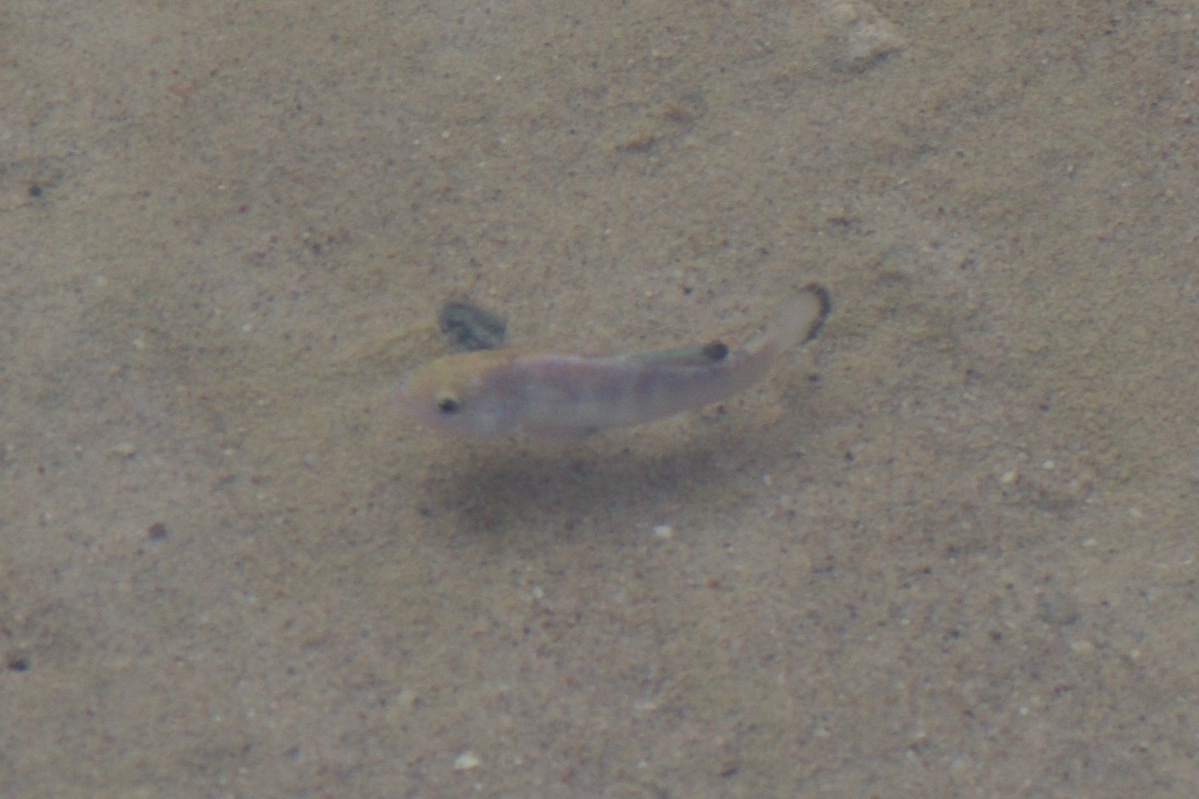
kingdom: Animalia
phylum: Chordata
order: Cyprinodontiformes
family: Cyprinodontidae
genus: Cyprinodon
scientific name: Cyprinodon salinus
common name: Cottonball marsh pupfish
